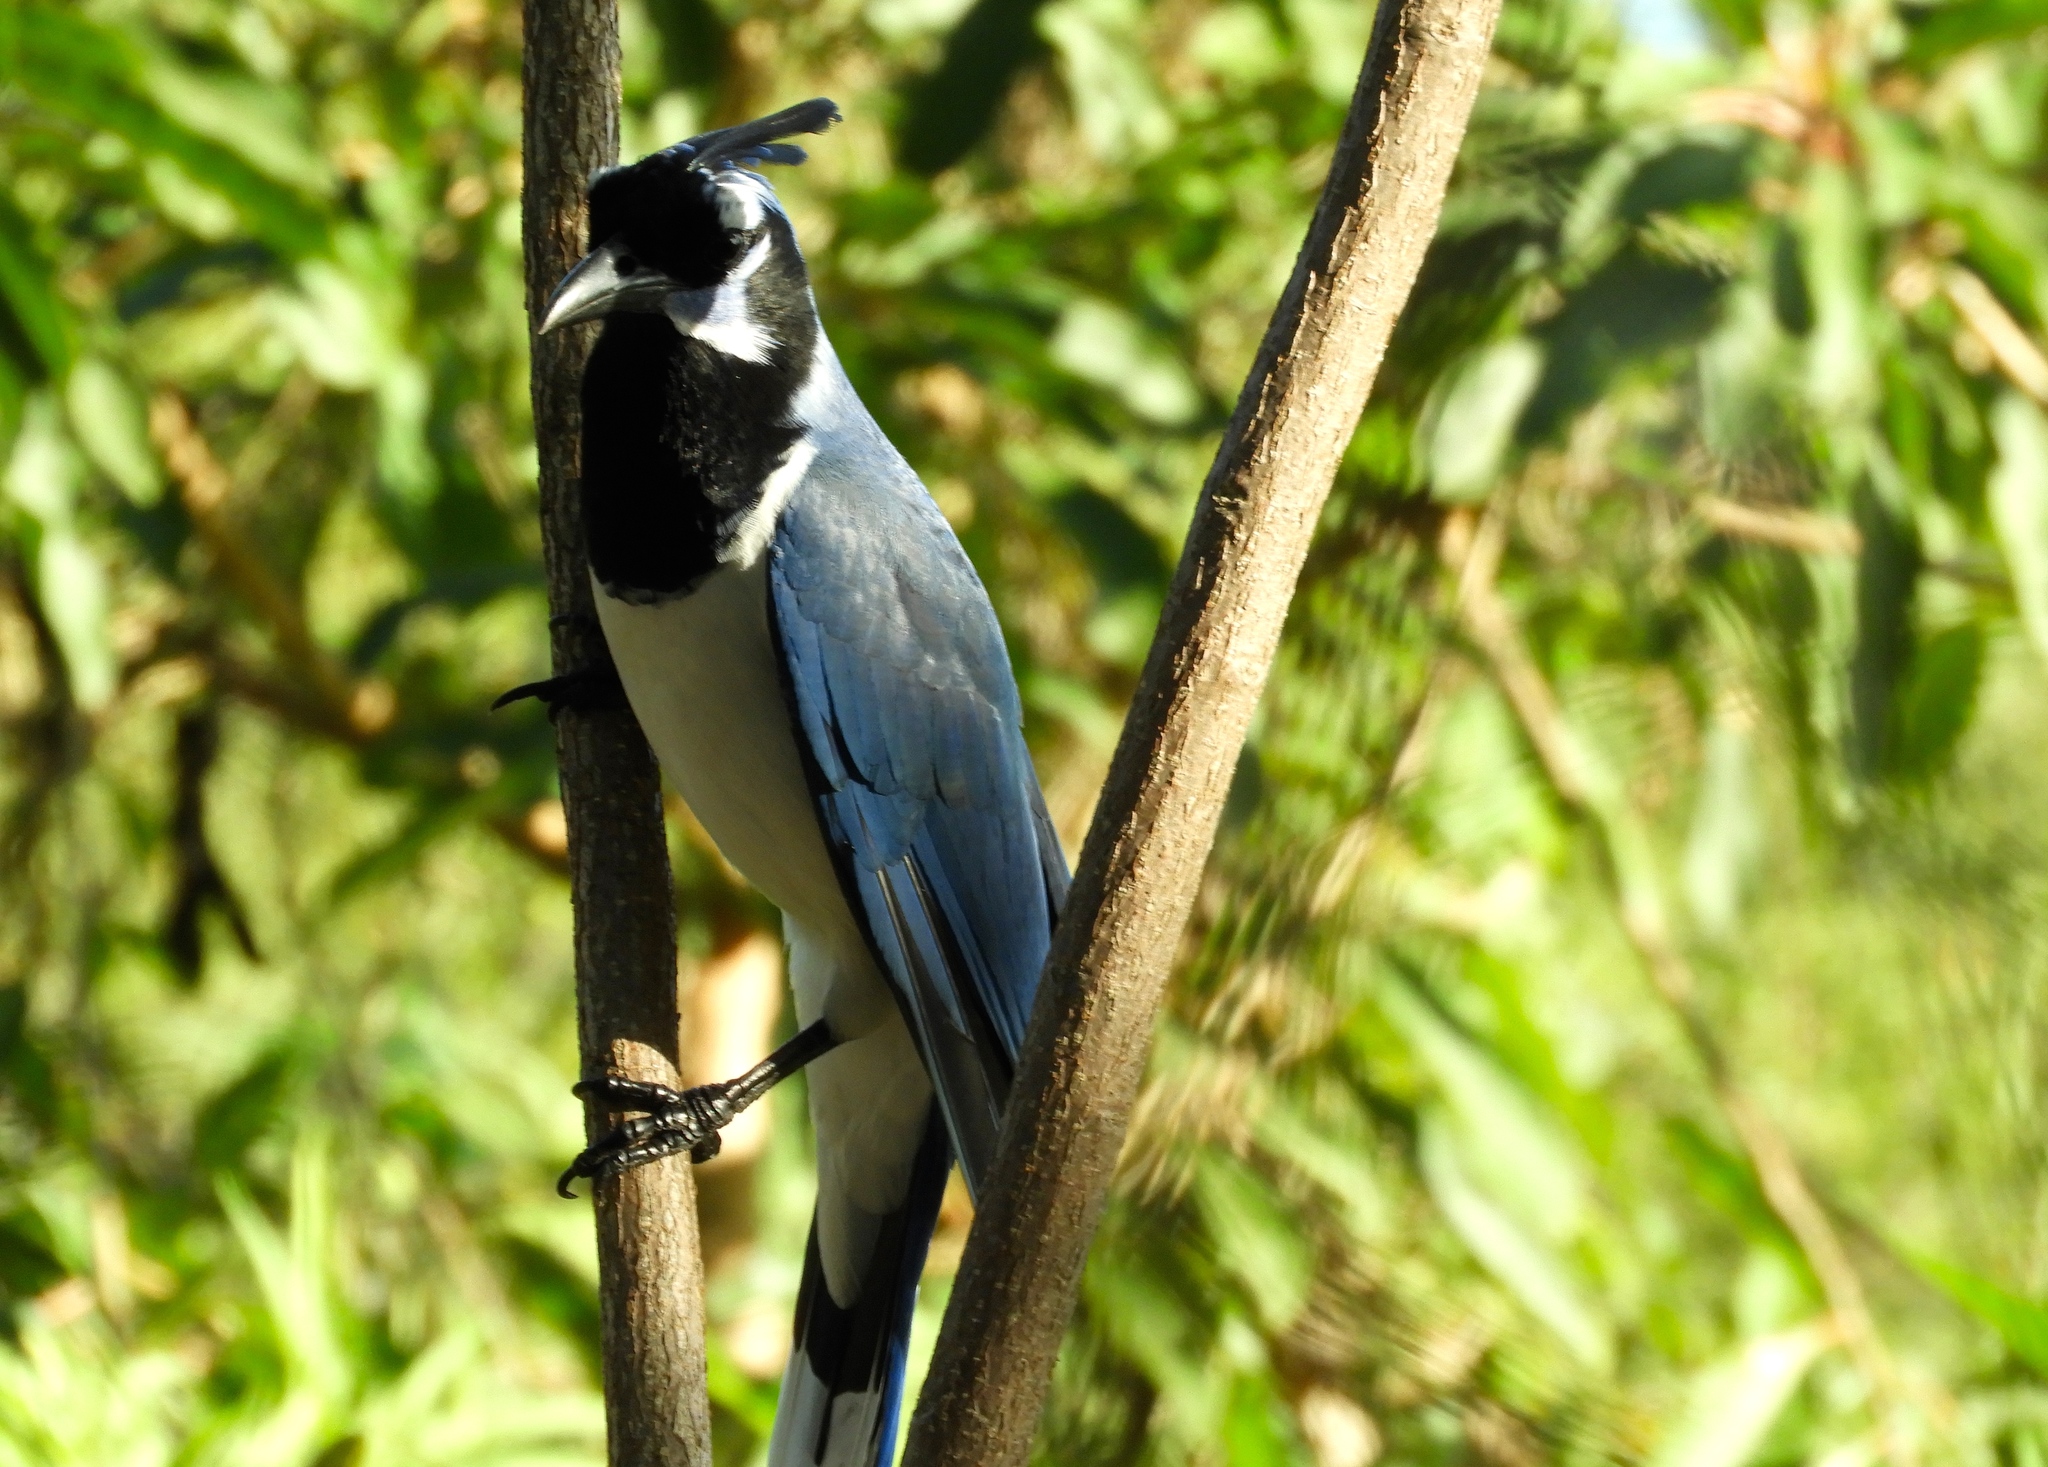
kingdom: Animalia
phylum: Chordata
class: Aves
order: Passeriformes
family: Corvidae
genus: Calocitta
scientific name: Calocitta colliei
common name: Black-throated magpie-jay
